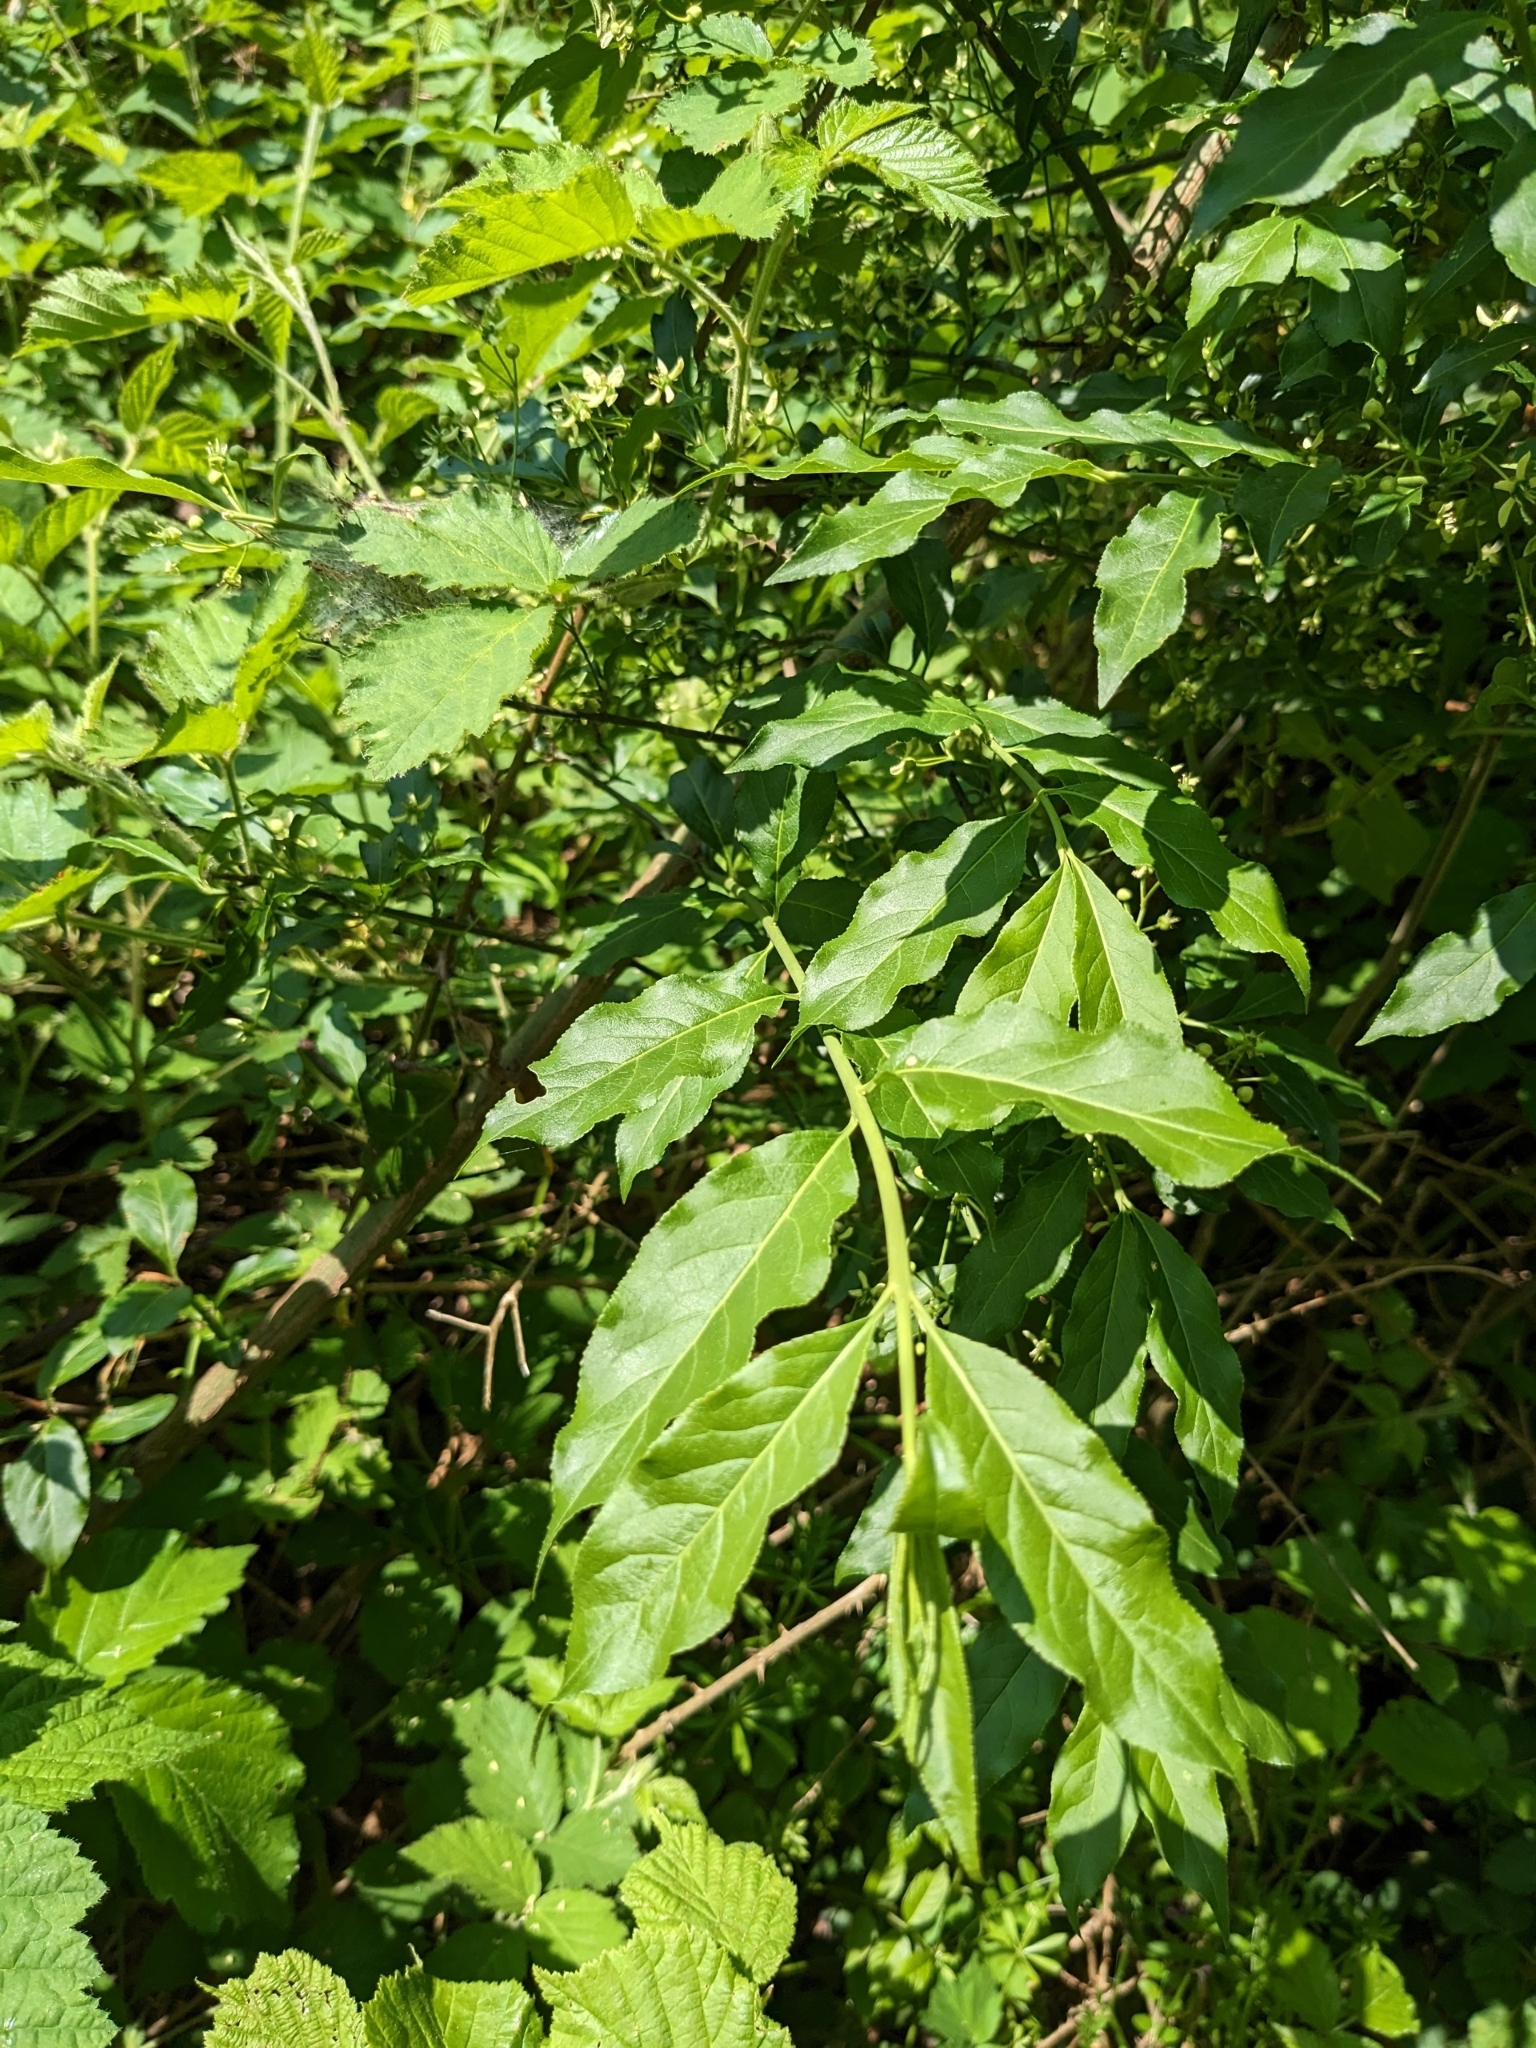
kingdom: Plantae
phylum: Tracheophyta
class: Magnoliopsida
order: Celastrales
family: Celastraceae
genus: Euonymus
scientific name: Euonymus europaeus
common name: Spindle
